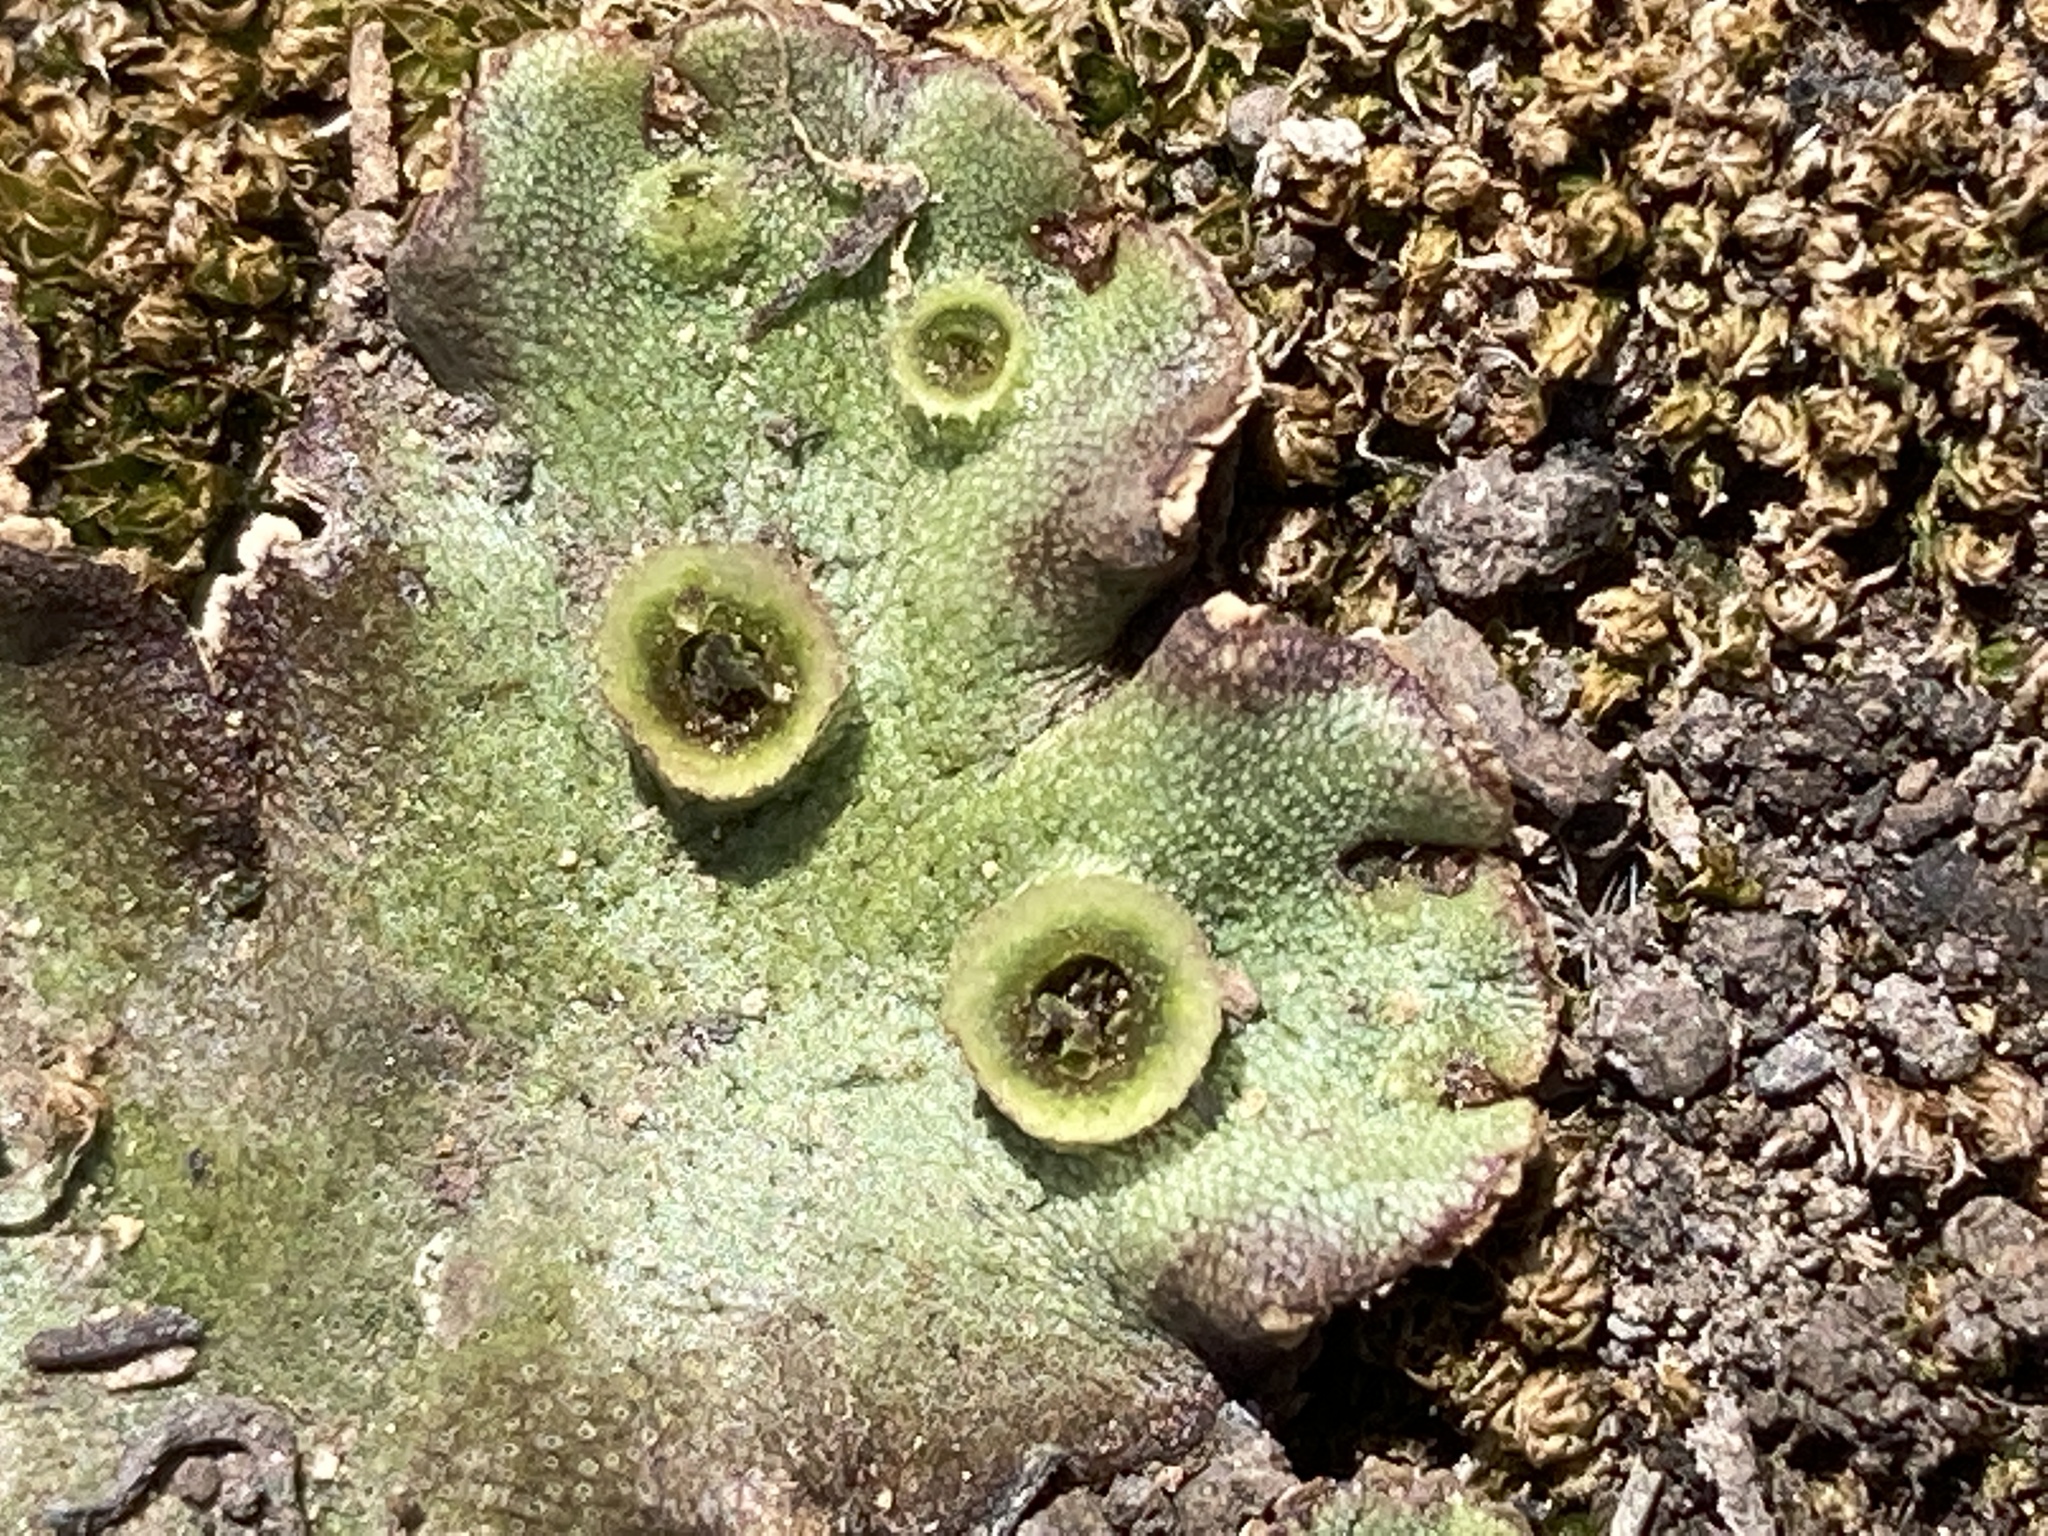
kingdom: Plantae
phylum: Marchantiophyta
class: Marchantiopsida
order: Marchantiales
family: Marchantiaceae
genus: Marchantia
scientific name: Marchantia polymorpha
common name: Common liverwort
